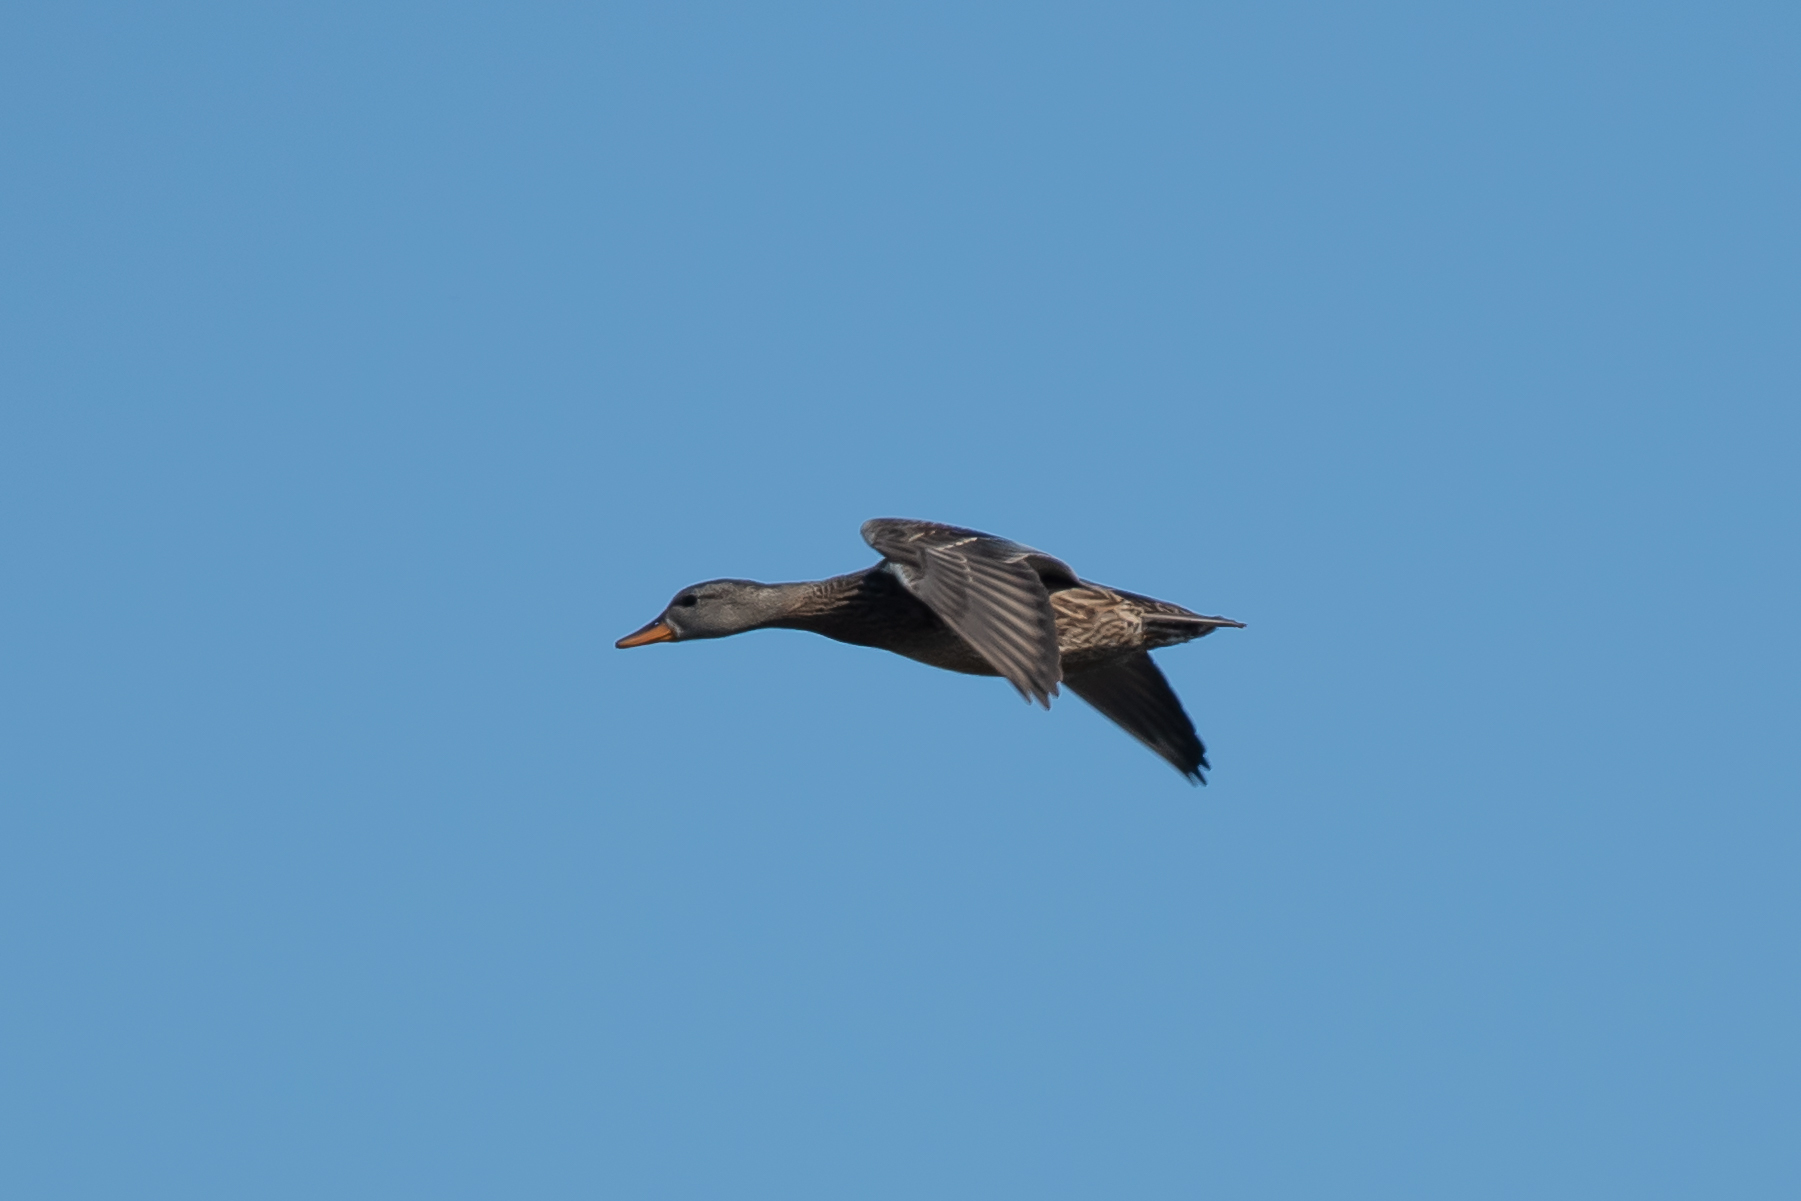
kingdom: Animalia
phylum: Chordata
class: Aves
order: Anseriformes
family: Anatidae
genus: Mareca
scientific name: Mareca strepera
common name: Gadwall
